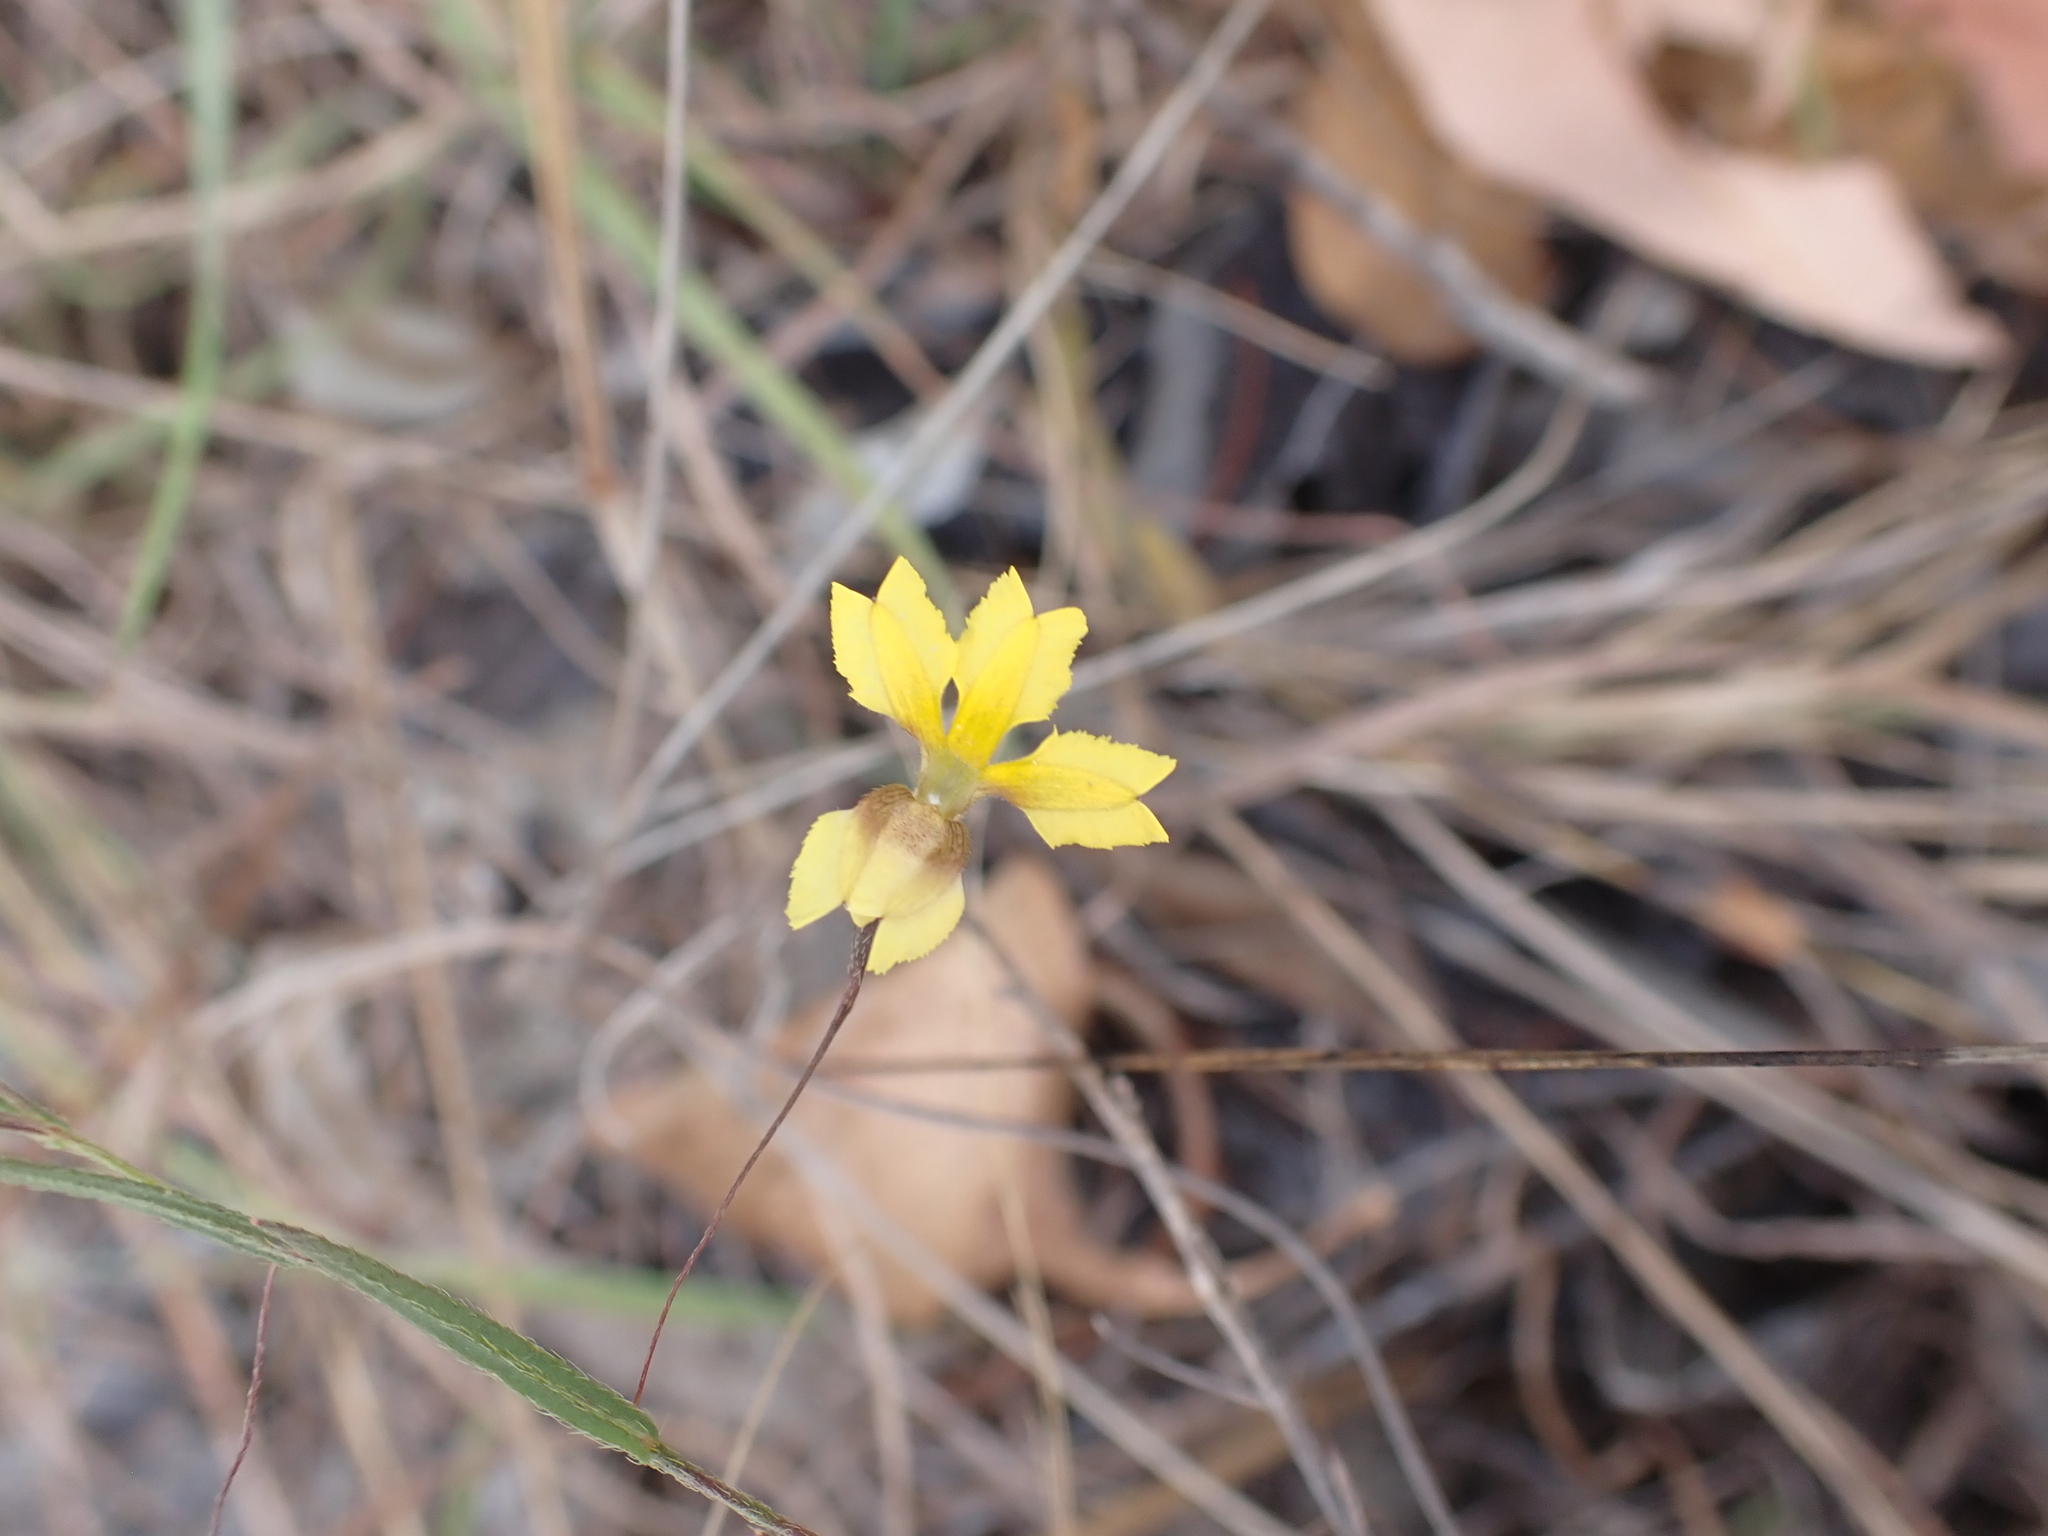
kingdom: Plantae
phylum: Tracheophyta
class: Magnoliopsida
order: Asterales
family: Goodeniaceae
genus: Goodenia
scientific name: Goodenia armstrongiana
